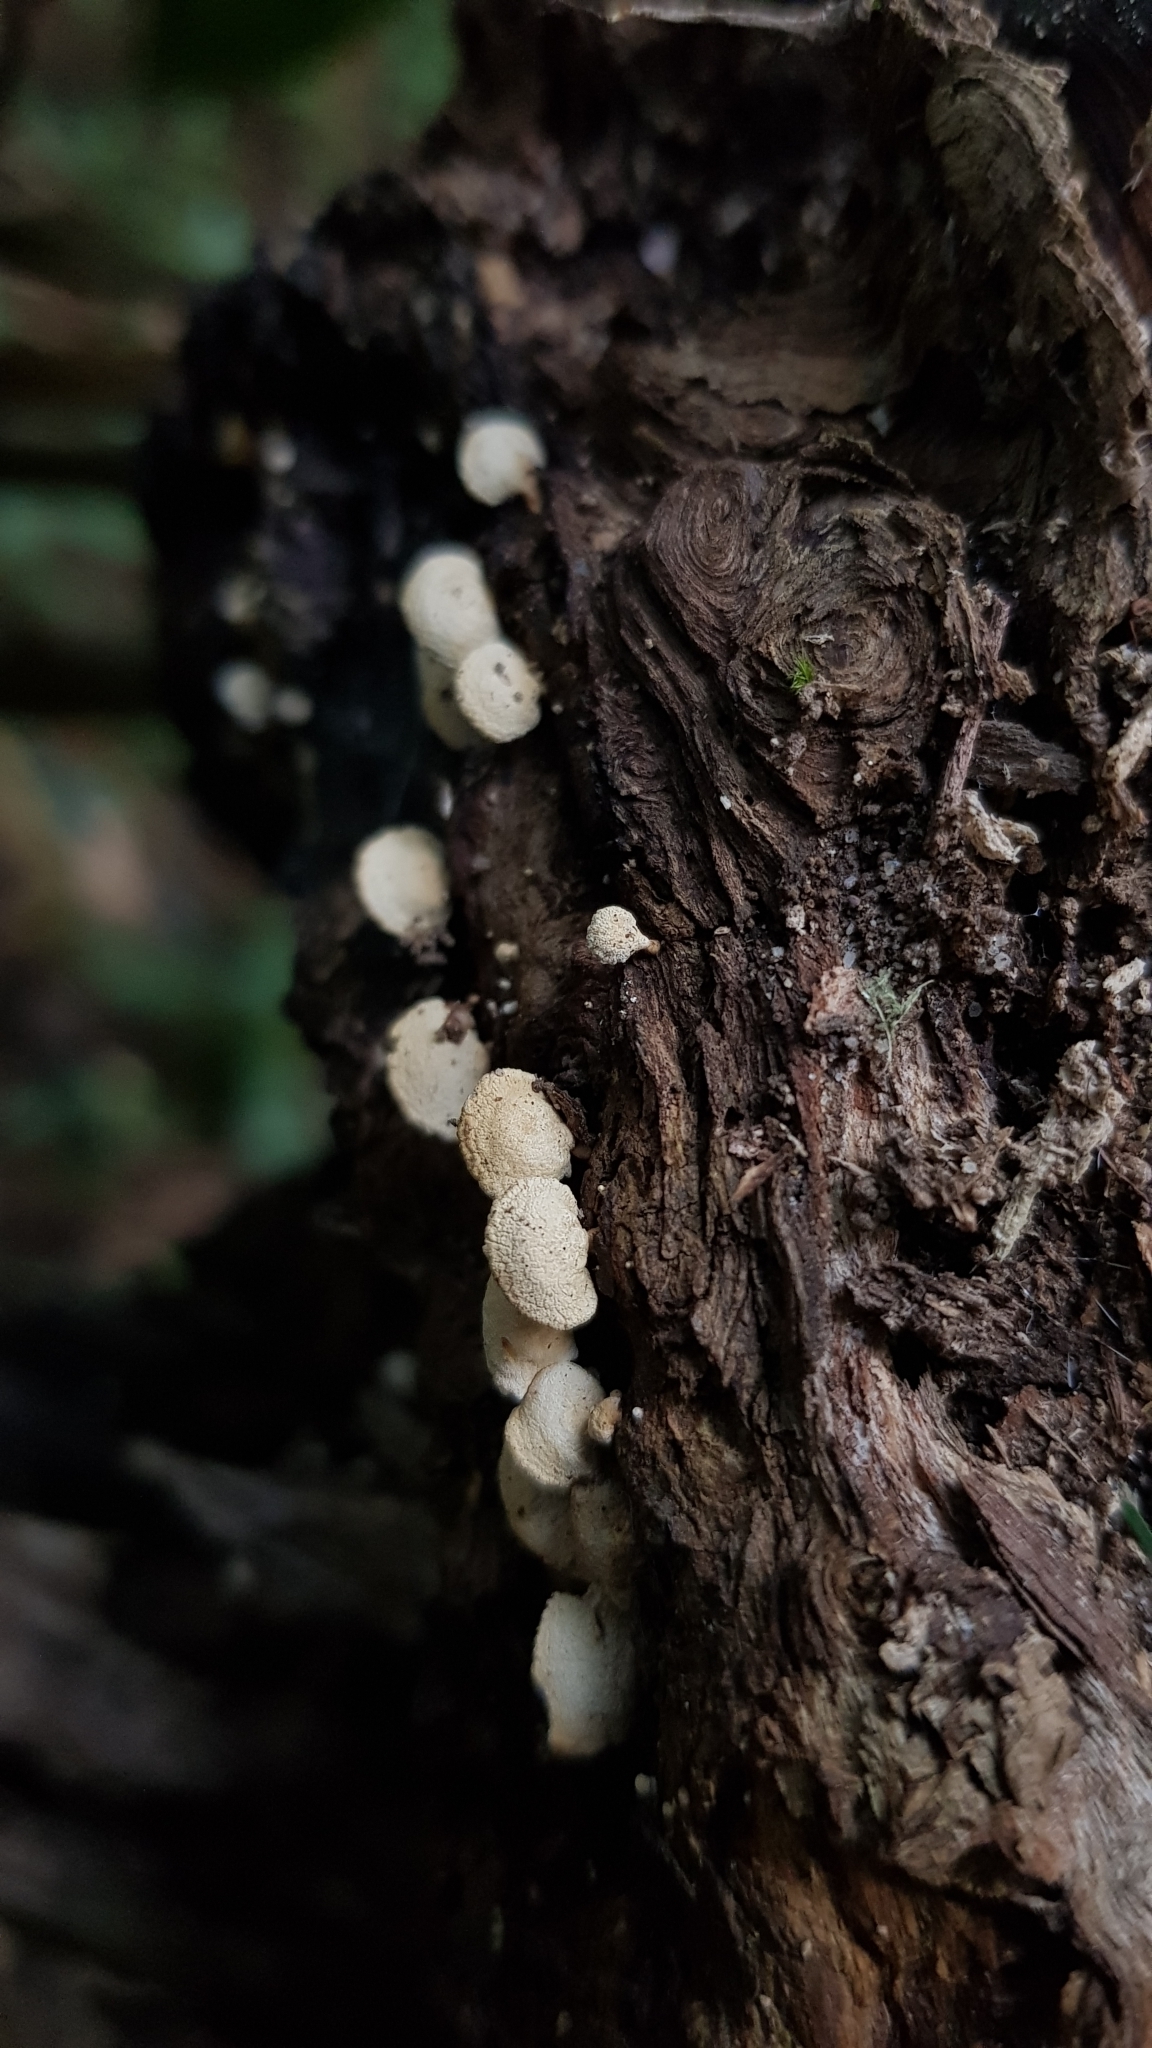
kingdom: Fungi
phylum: Basidiomycota
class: Agaricomycetes
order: Agaricales
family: Mycenaceae
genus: Panellus
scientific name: Panellus luxfilamentus
